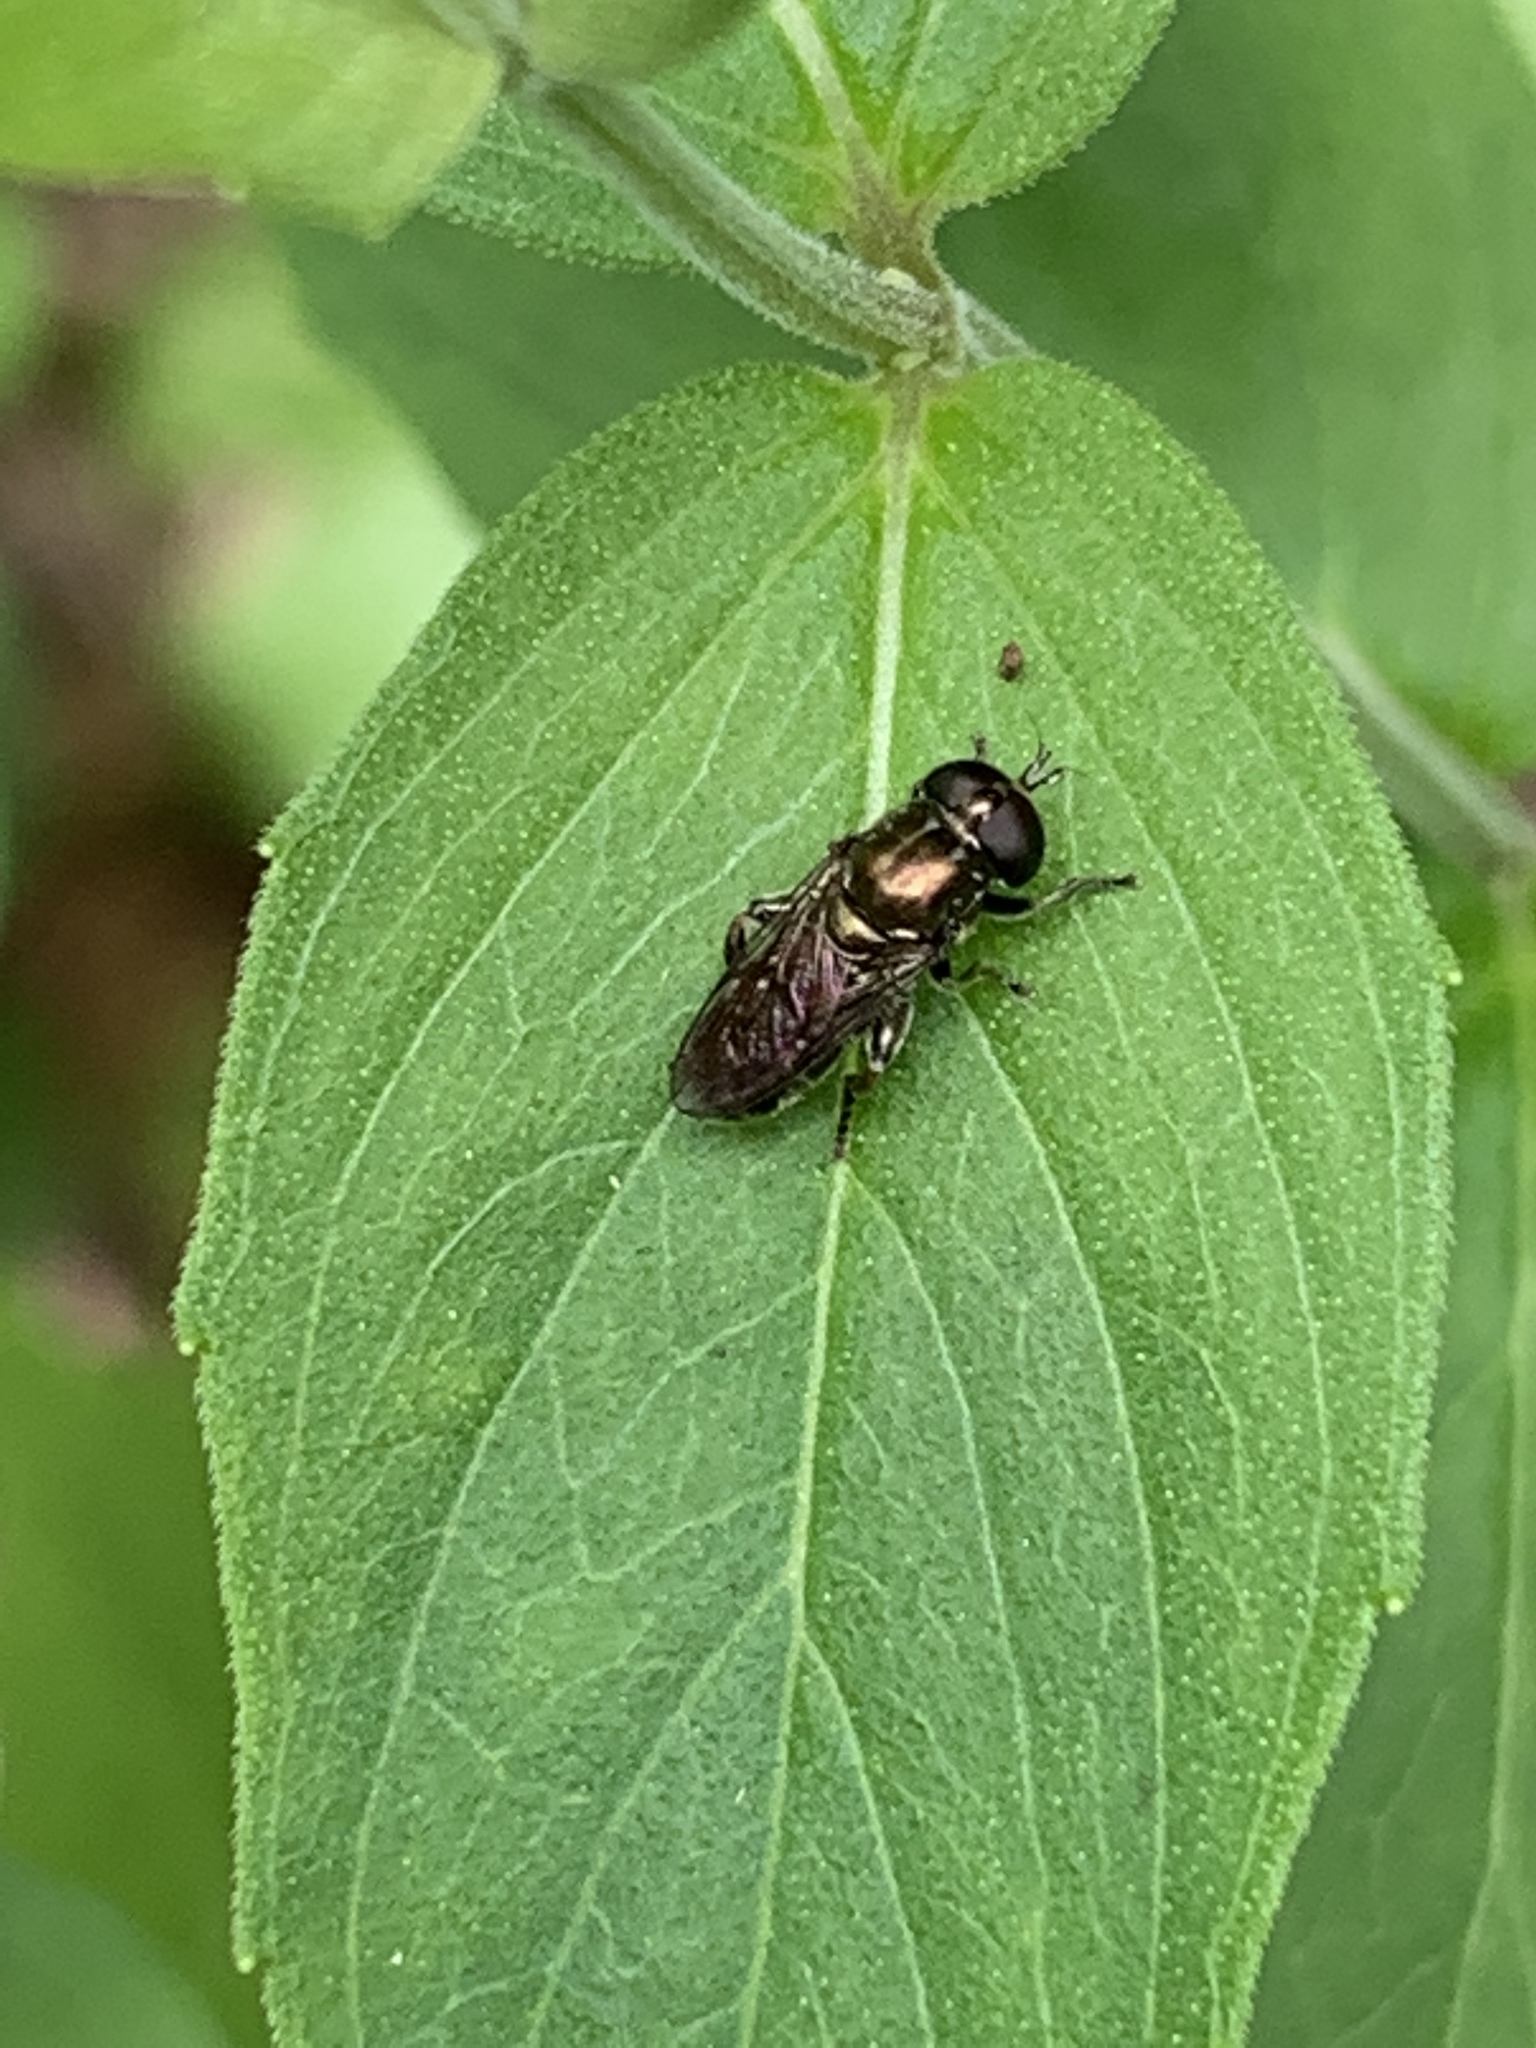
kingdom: Animalia
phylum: Arthropoda
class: Insecta
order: Diptera
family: Syrphidae
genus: Eumerus
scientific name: Eumerus
